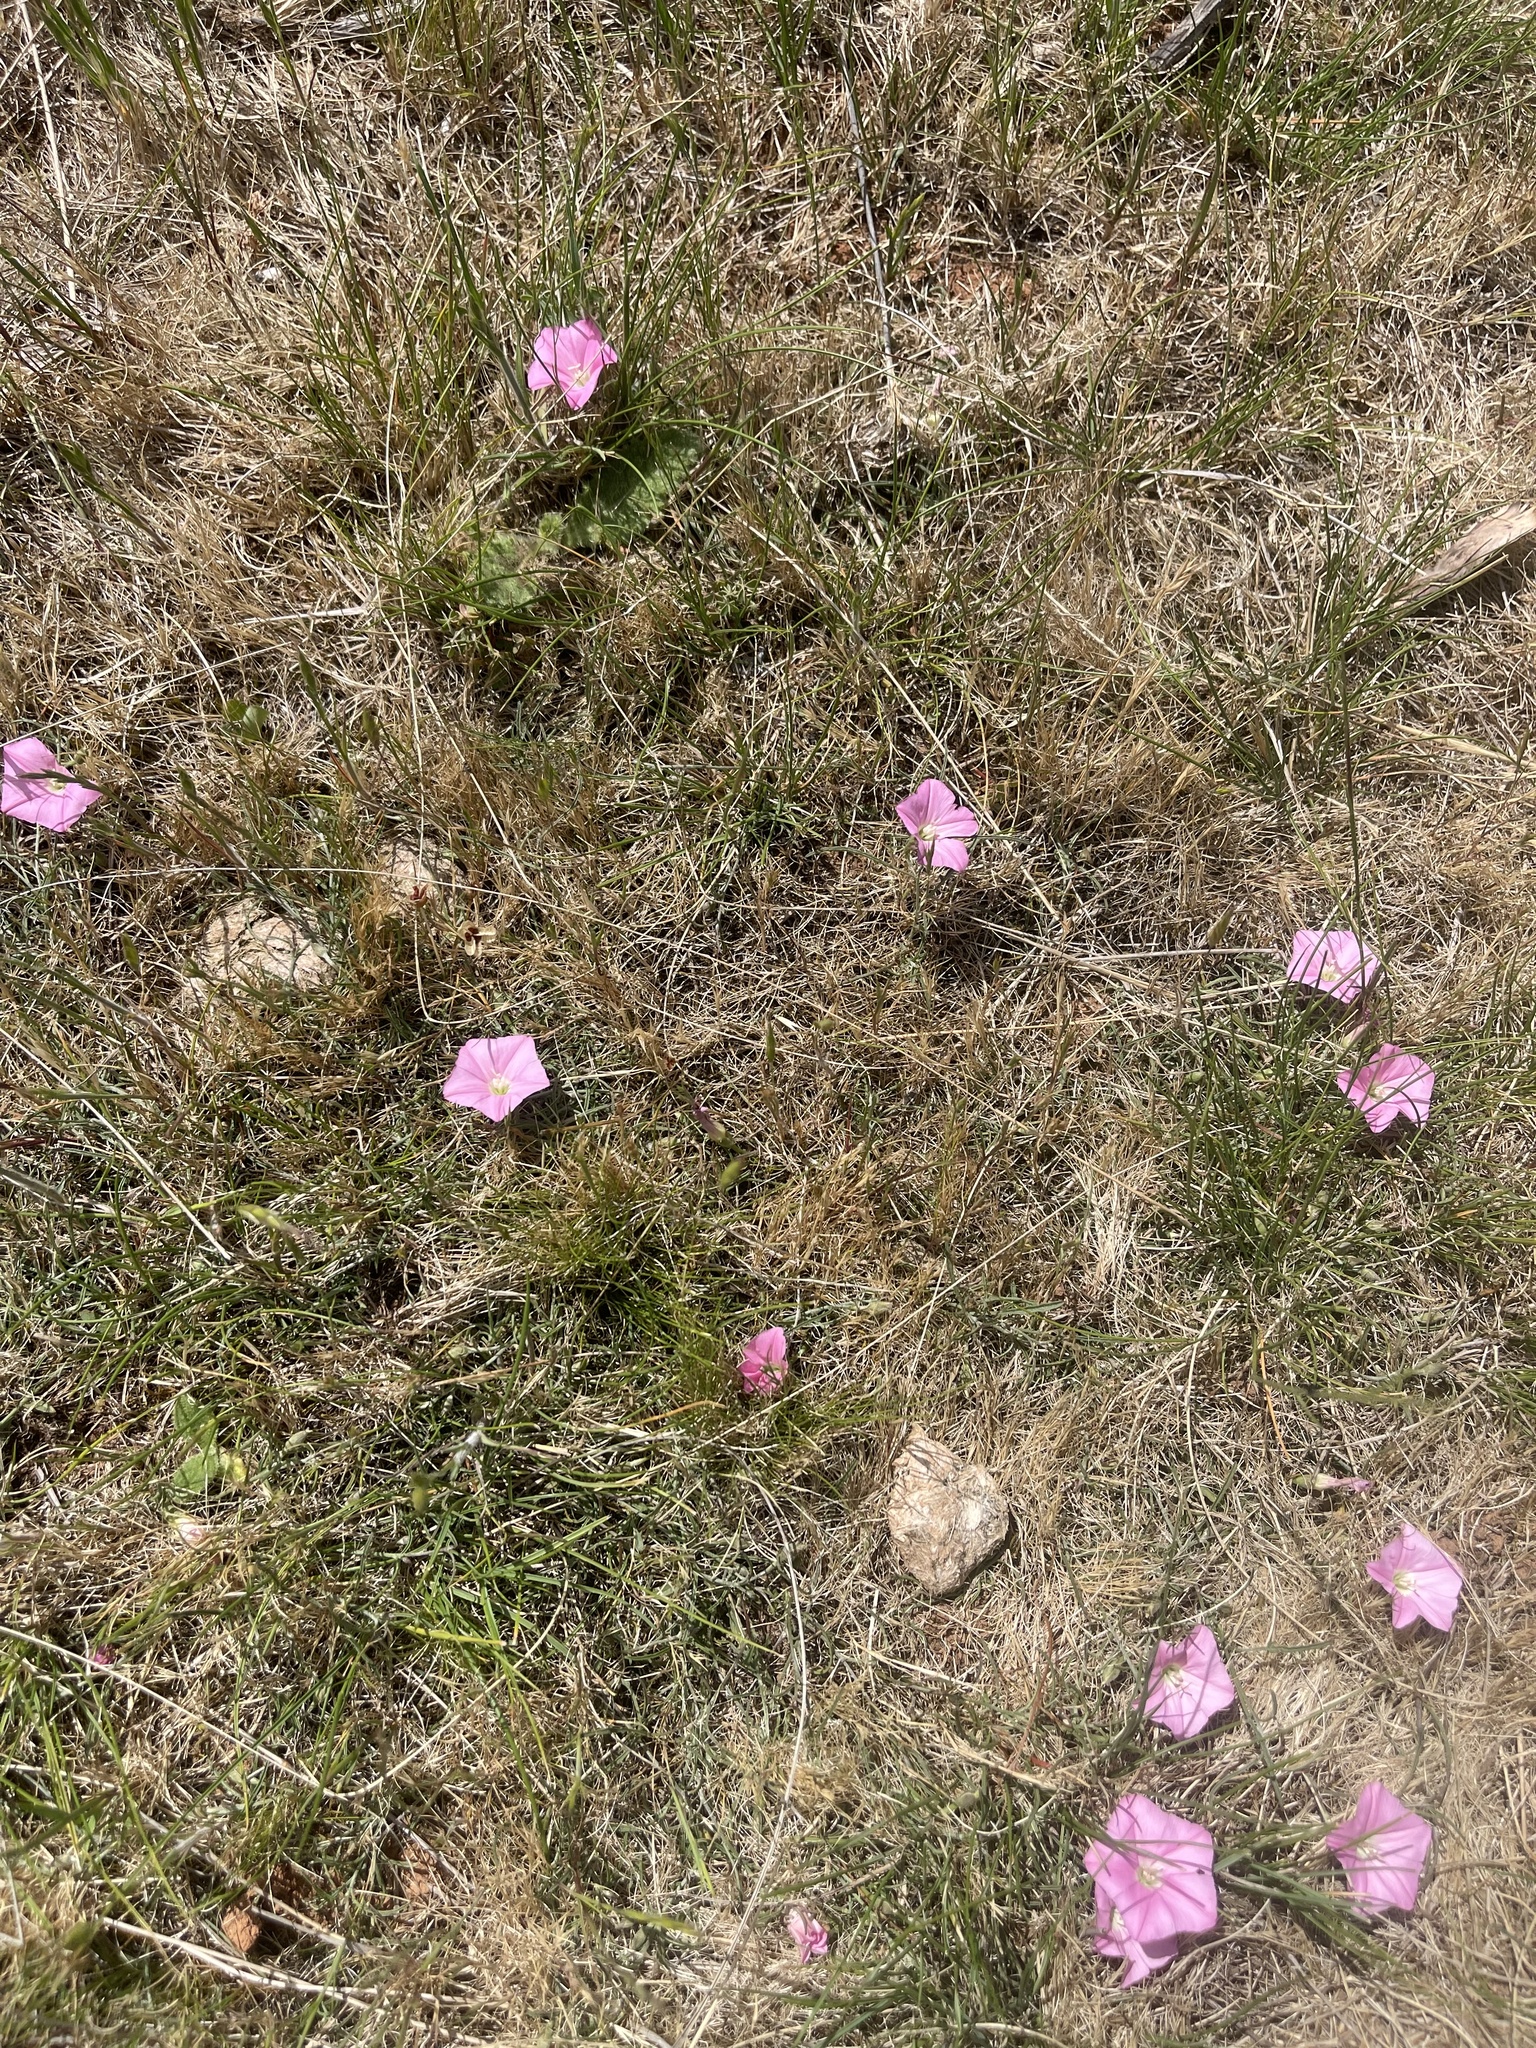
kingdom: Plantae
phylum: Tracheophyta
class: Magnoliopsida
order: Solanales
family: Convolvulaceae
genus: Convolvulus
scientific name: Convolvulus angustissimus
